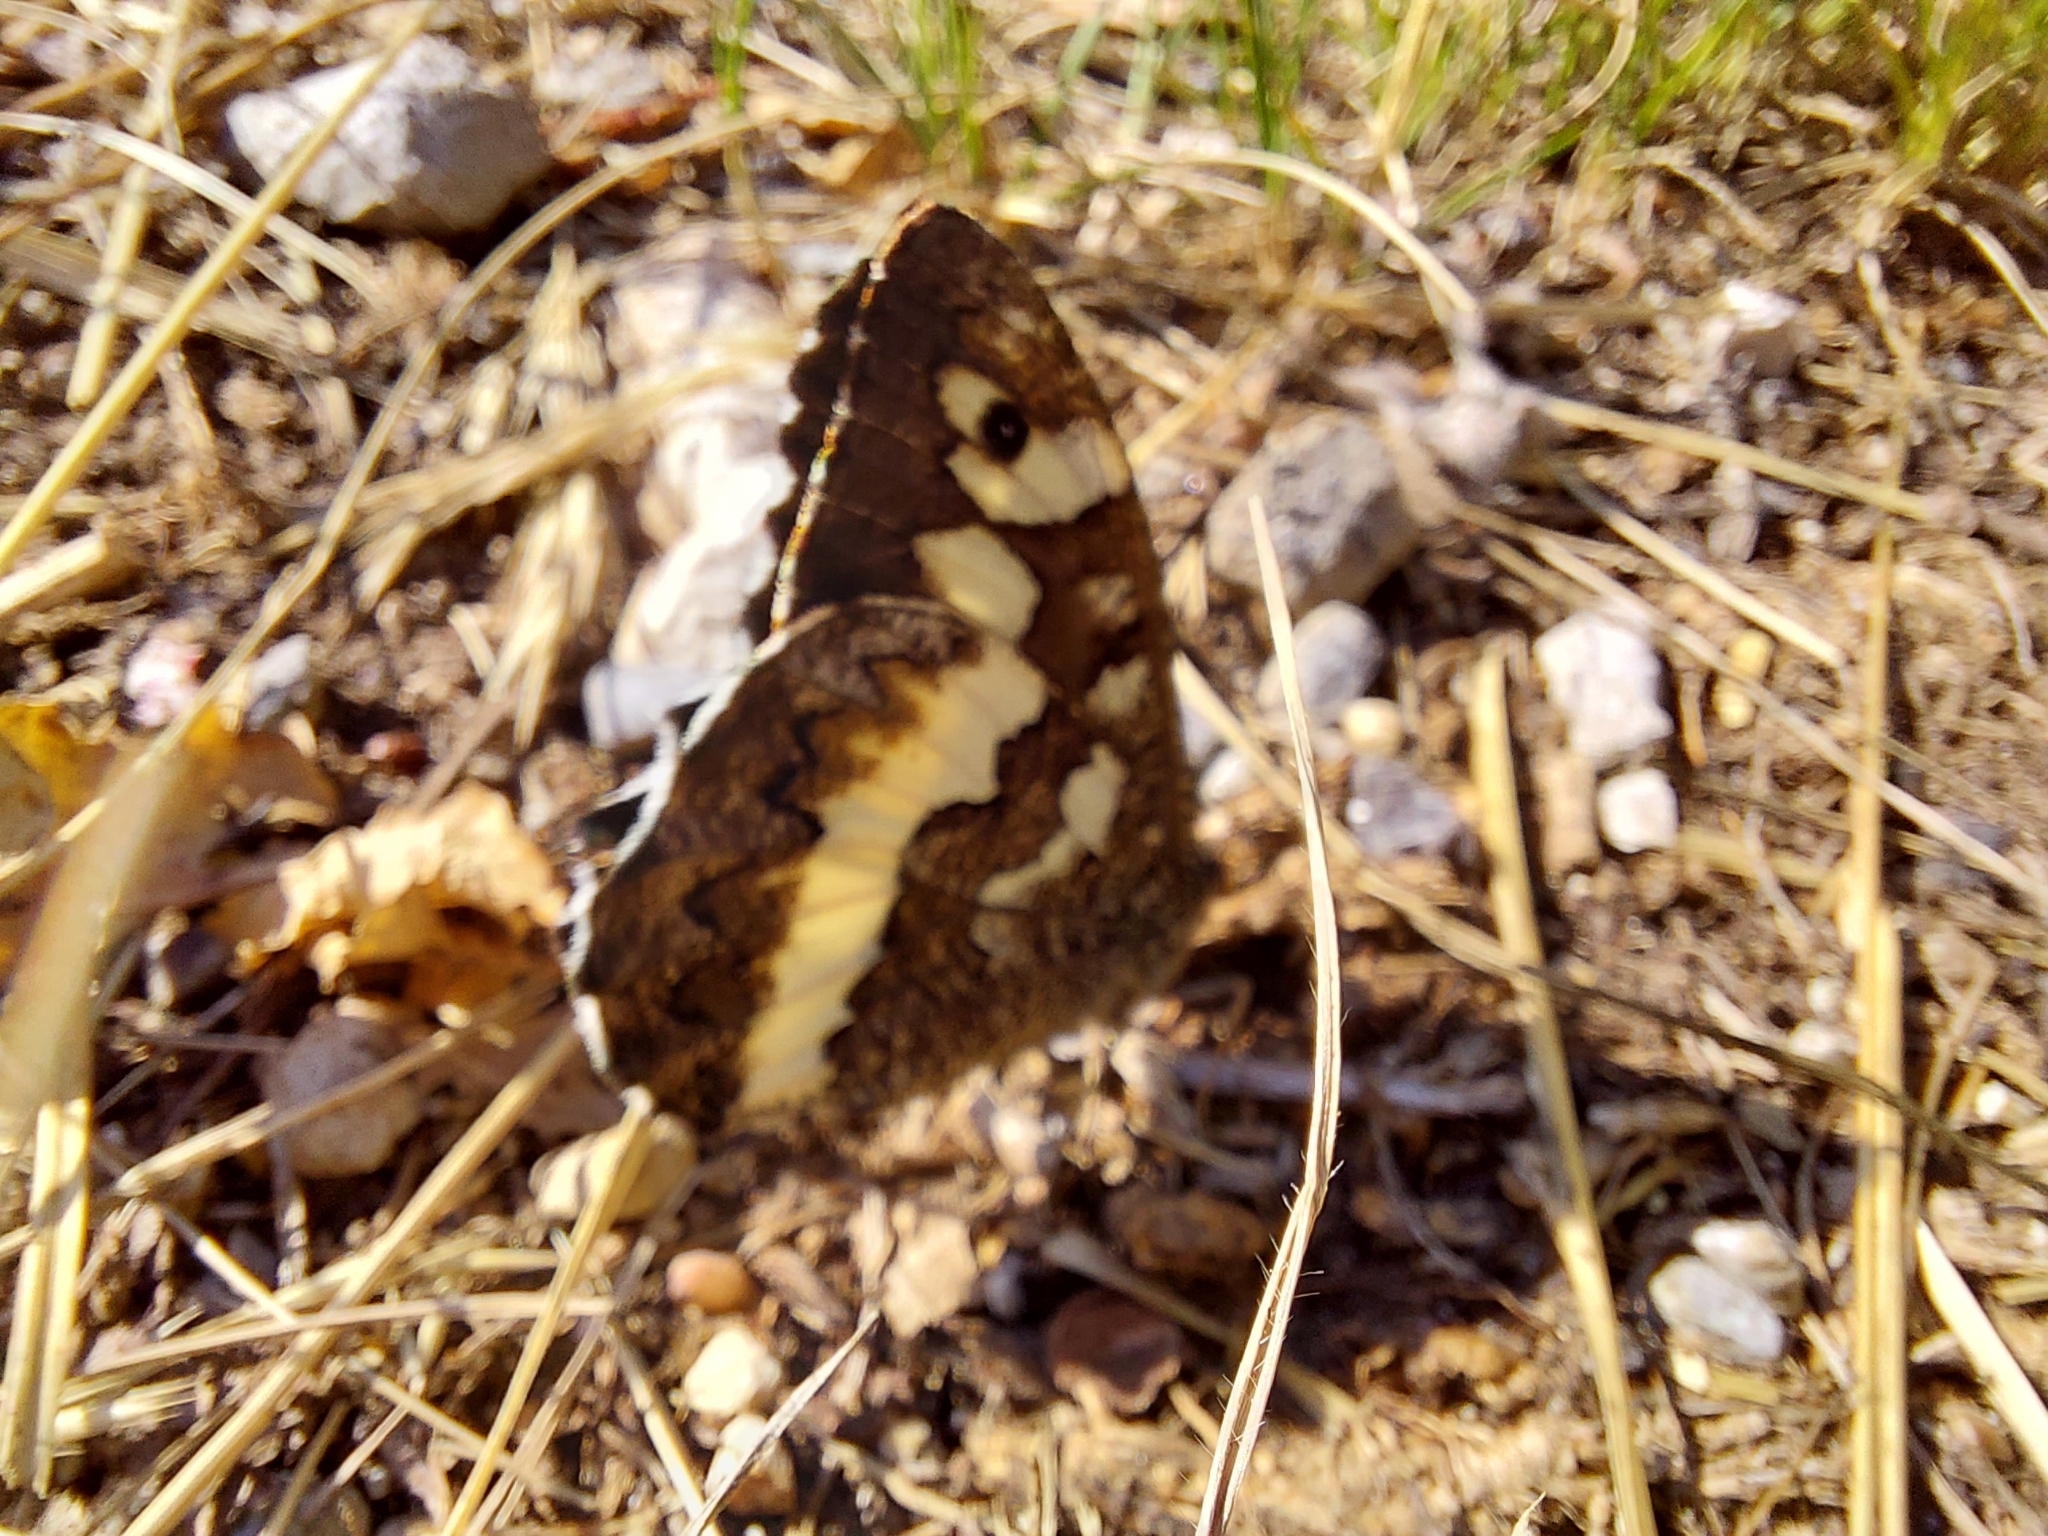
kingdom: Animalia
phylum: Arthropoda
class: Insecta
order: Lepidoptera
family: Lycaenidae
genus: Loweia
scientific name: Loweia tityrus
